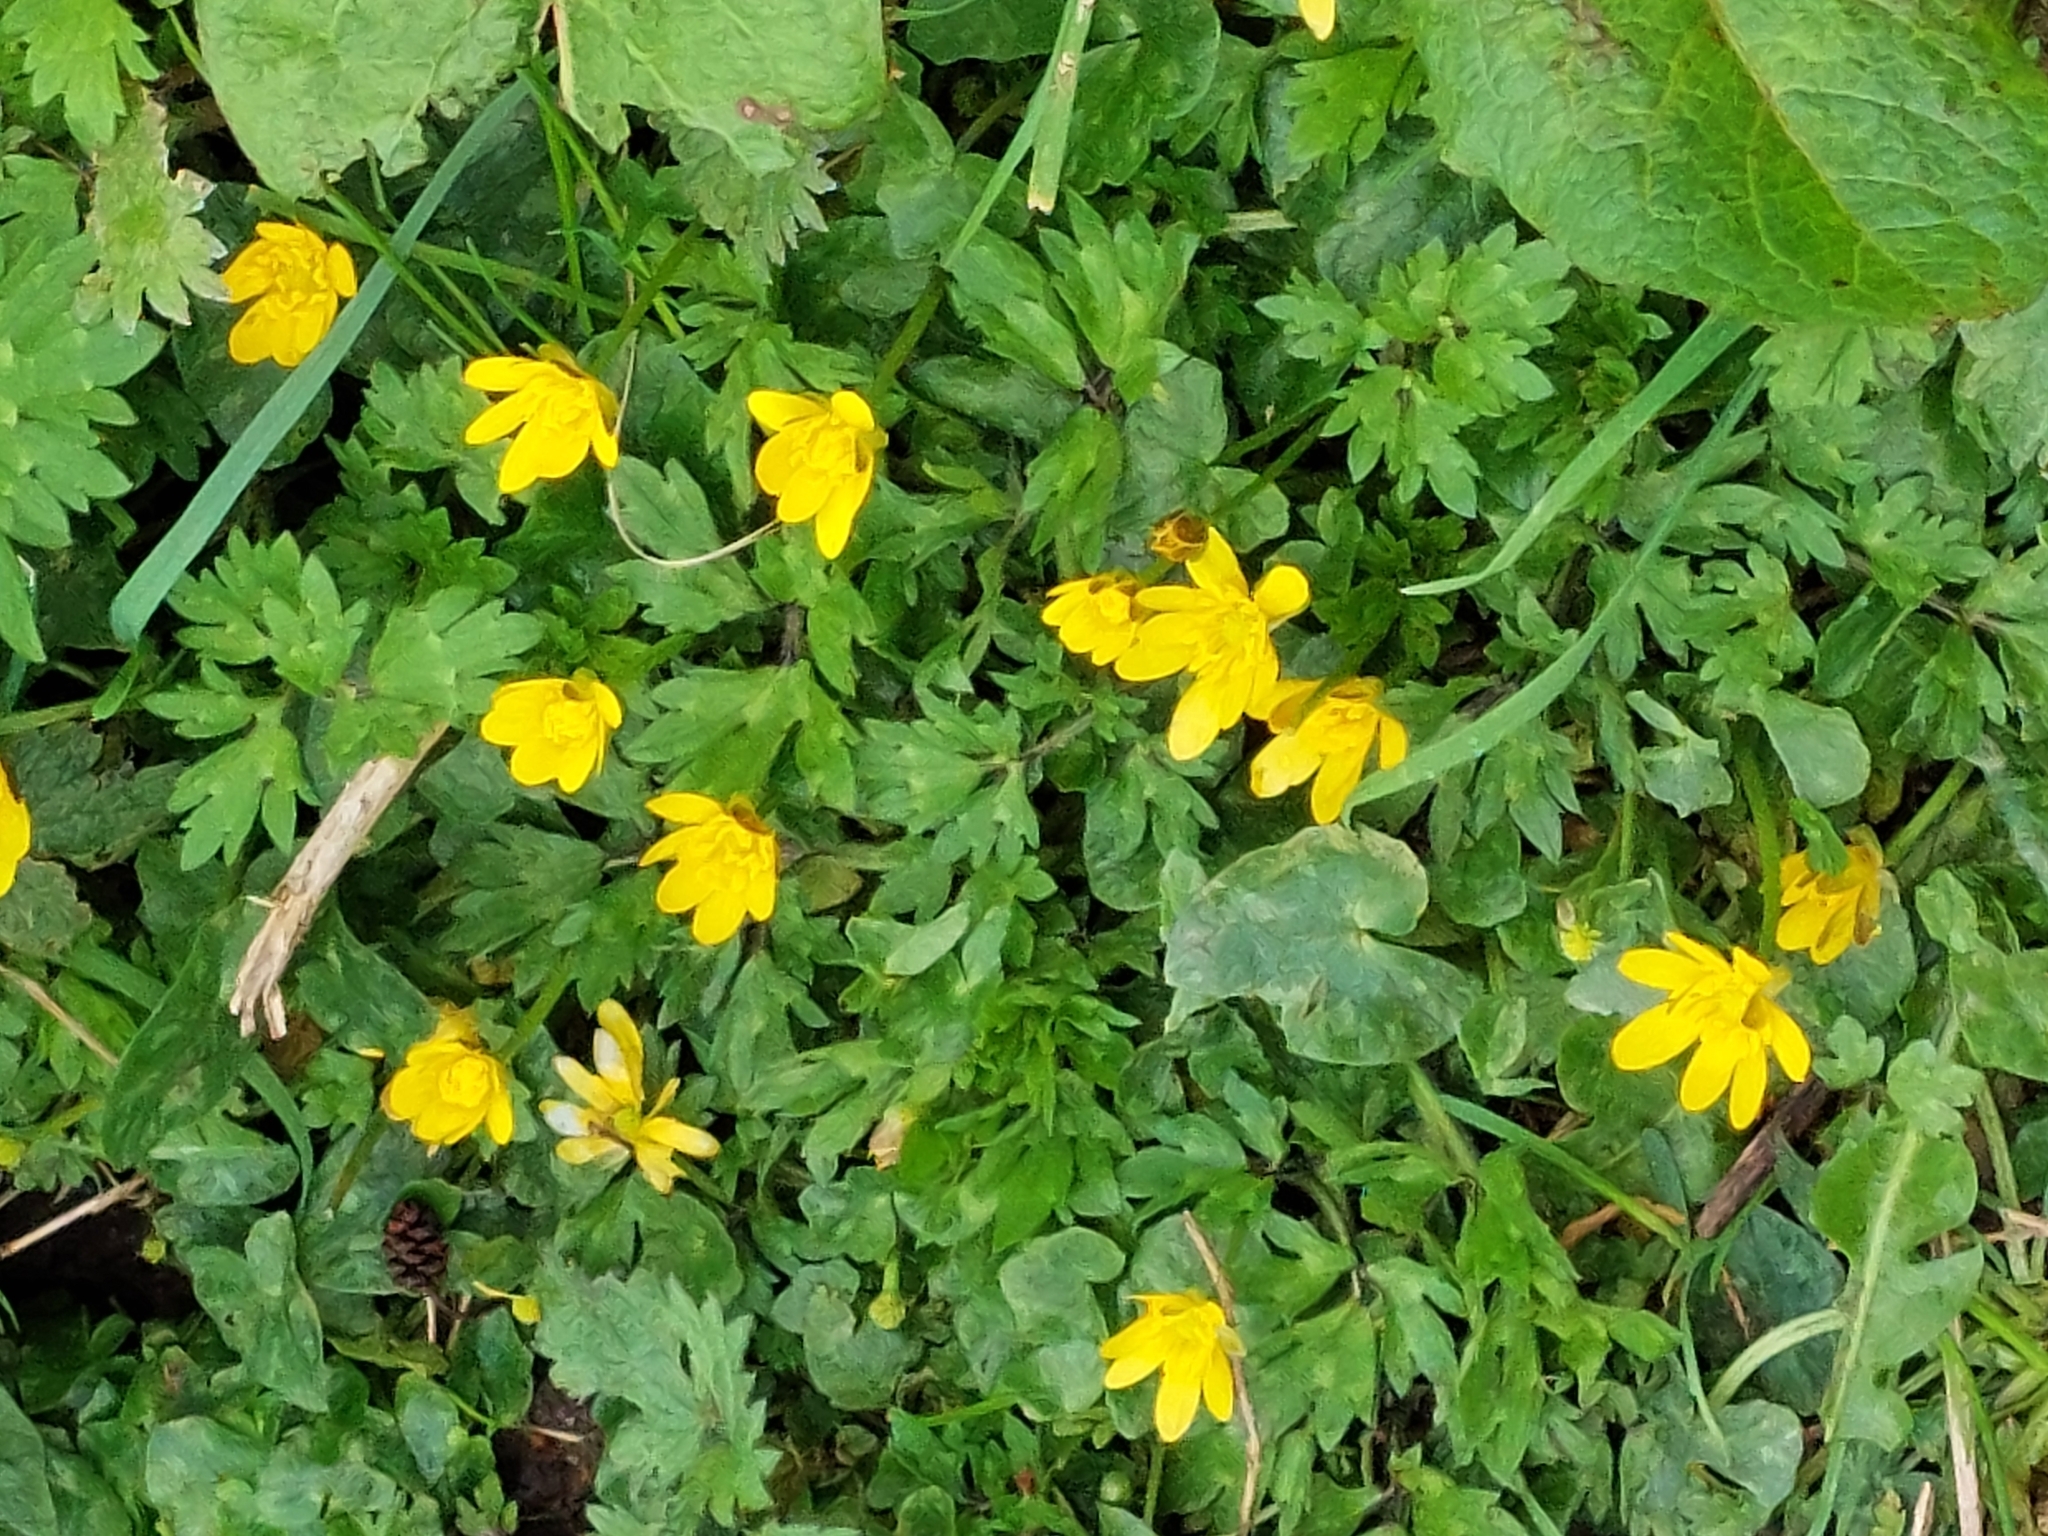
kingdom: Plantae
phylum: Tracheophyta
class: Magnoliopsida
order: Ranunculales
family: Ranunculaceae
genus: Ficaria
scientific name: Ficaria verna
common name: Lesser celandine
